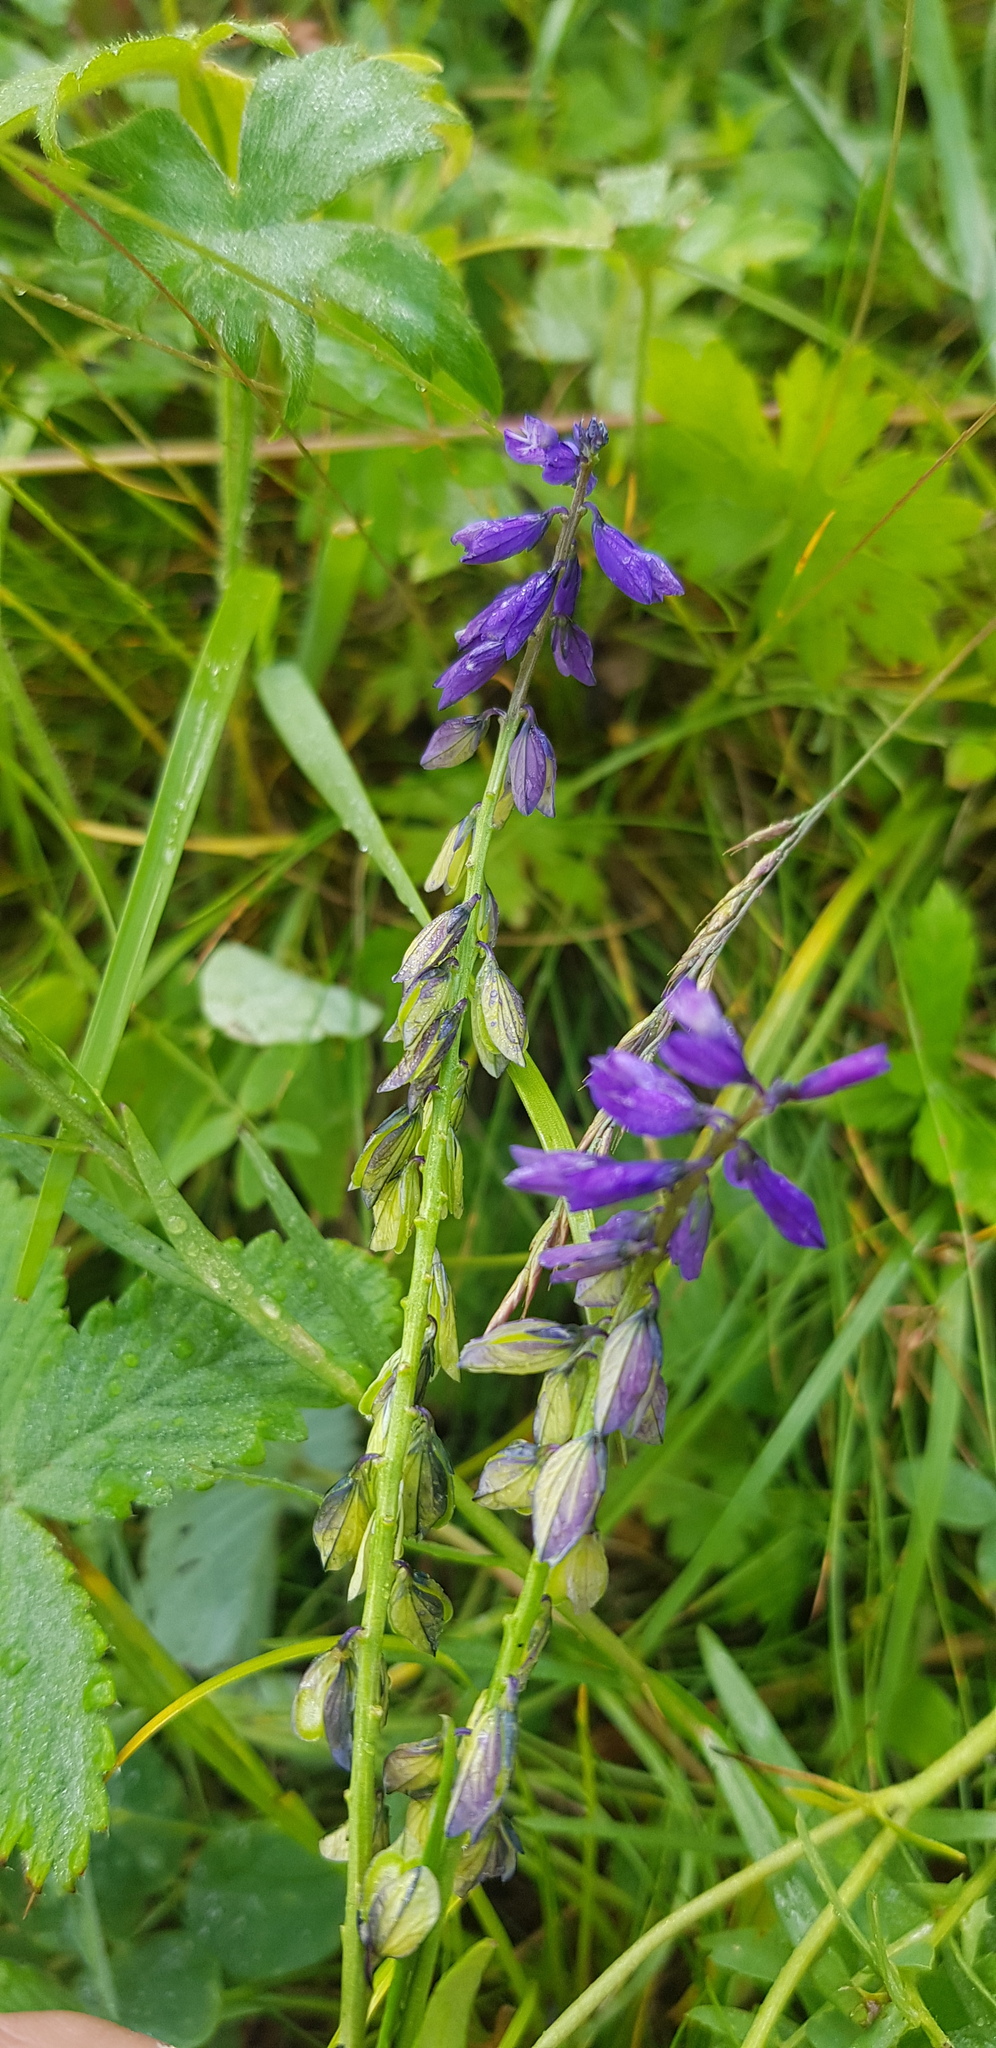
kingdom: Plantae
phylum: Tracheophyta
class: Magnoliopsida
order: Fabales
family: Polygalaceae
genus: Polygala
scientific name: Polygala comosa
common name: Tufted milkwort
